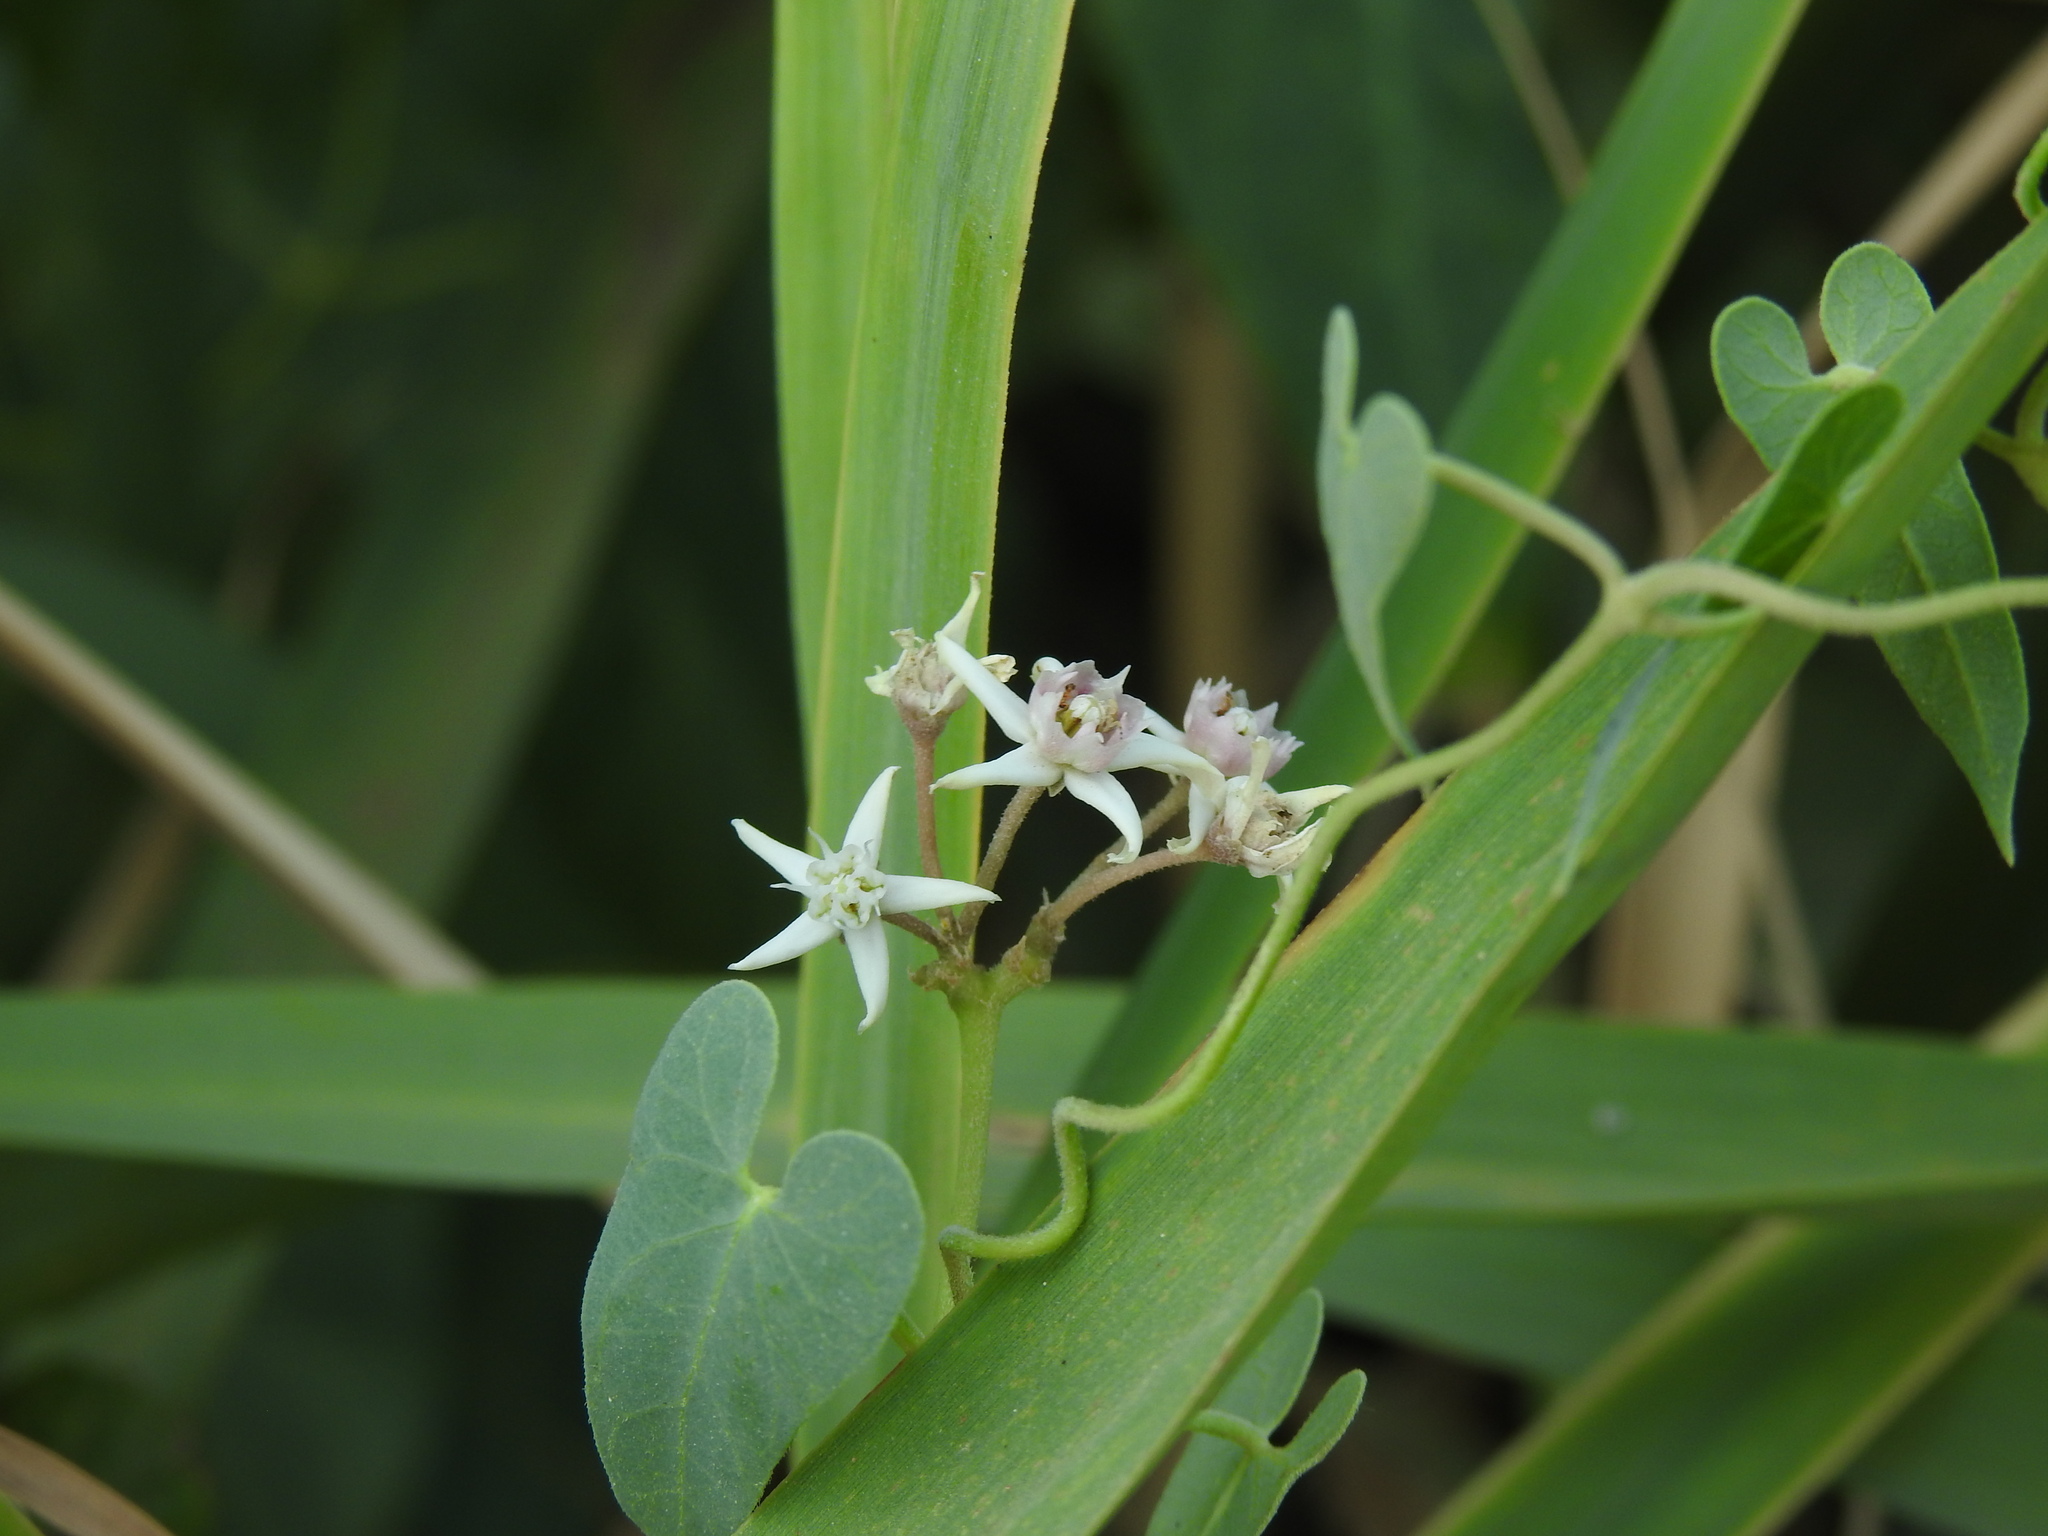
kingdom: Plantae
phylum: Tracheophyta
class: Magnoliopsida
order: Gentianales
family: Apocynaceae
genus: Cynanchum
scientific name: Cynanchum acutum
